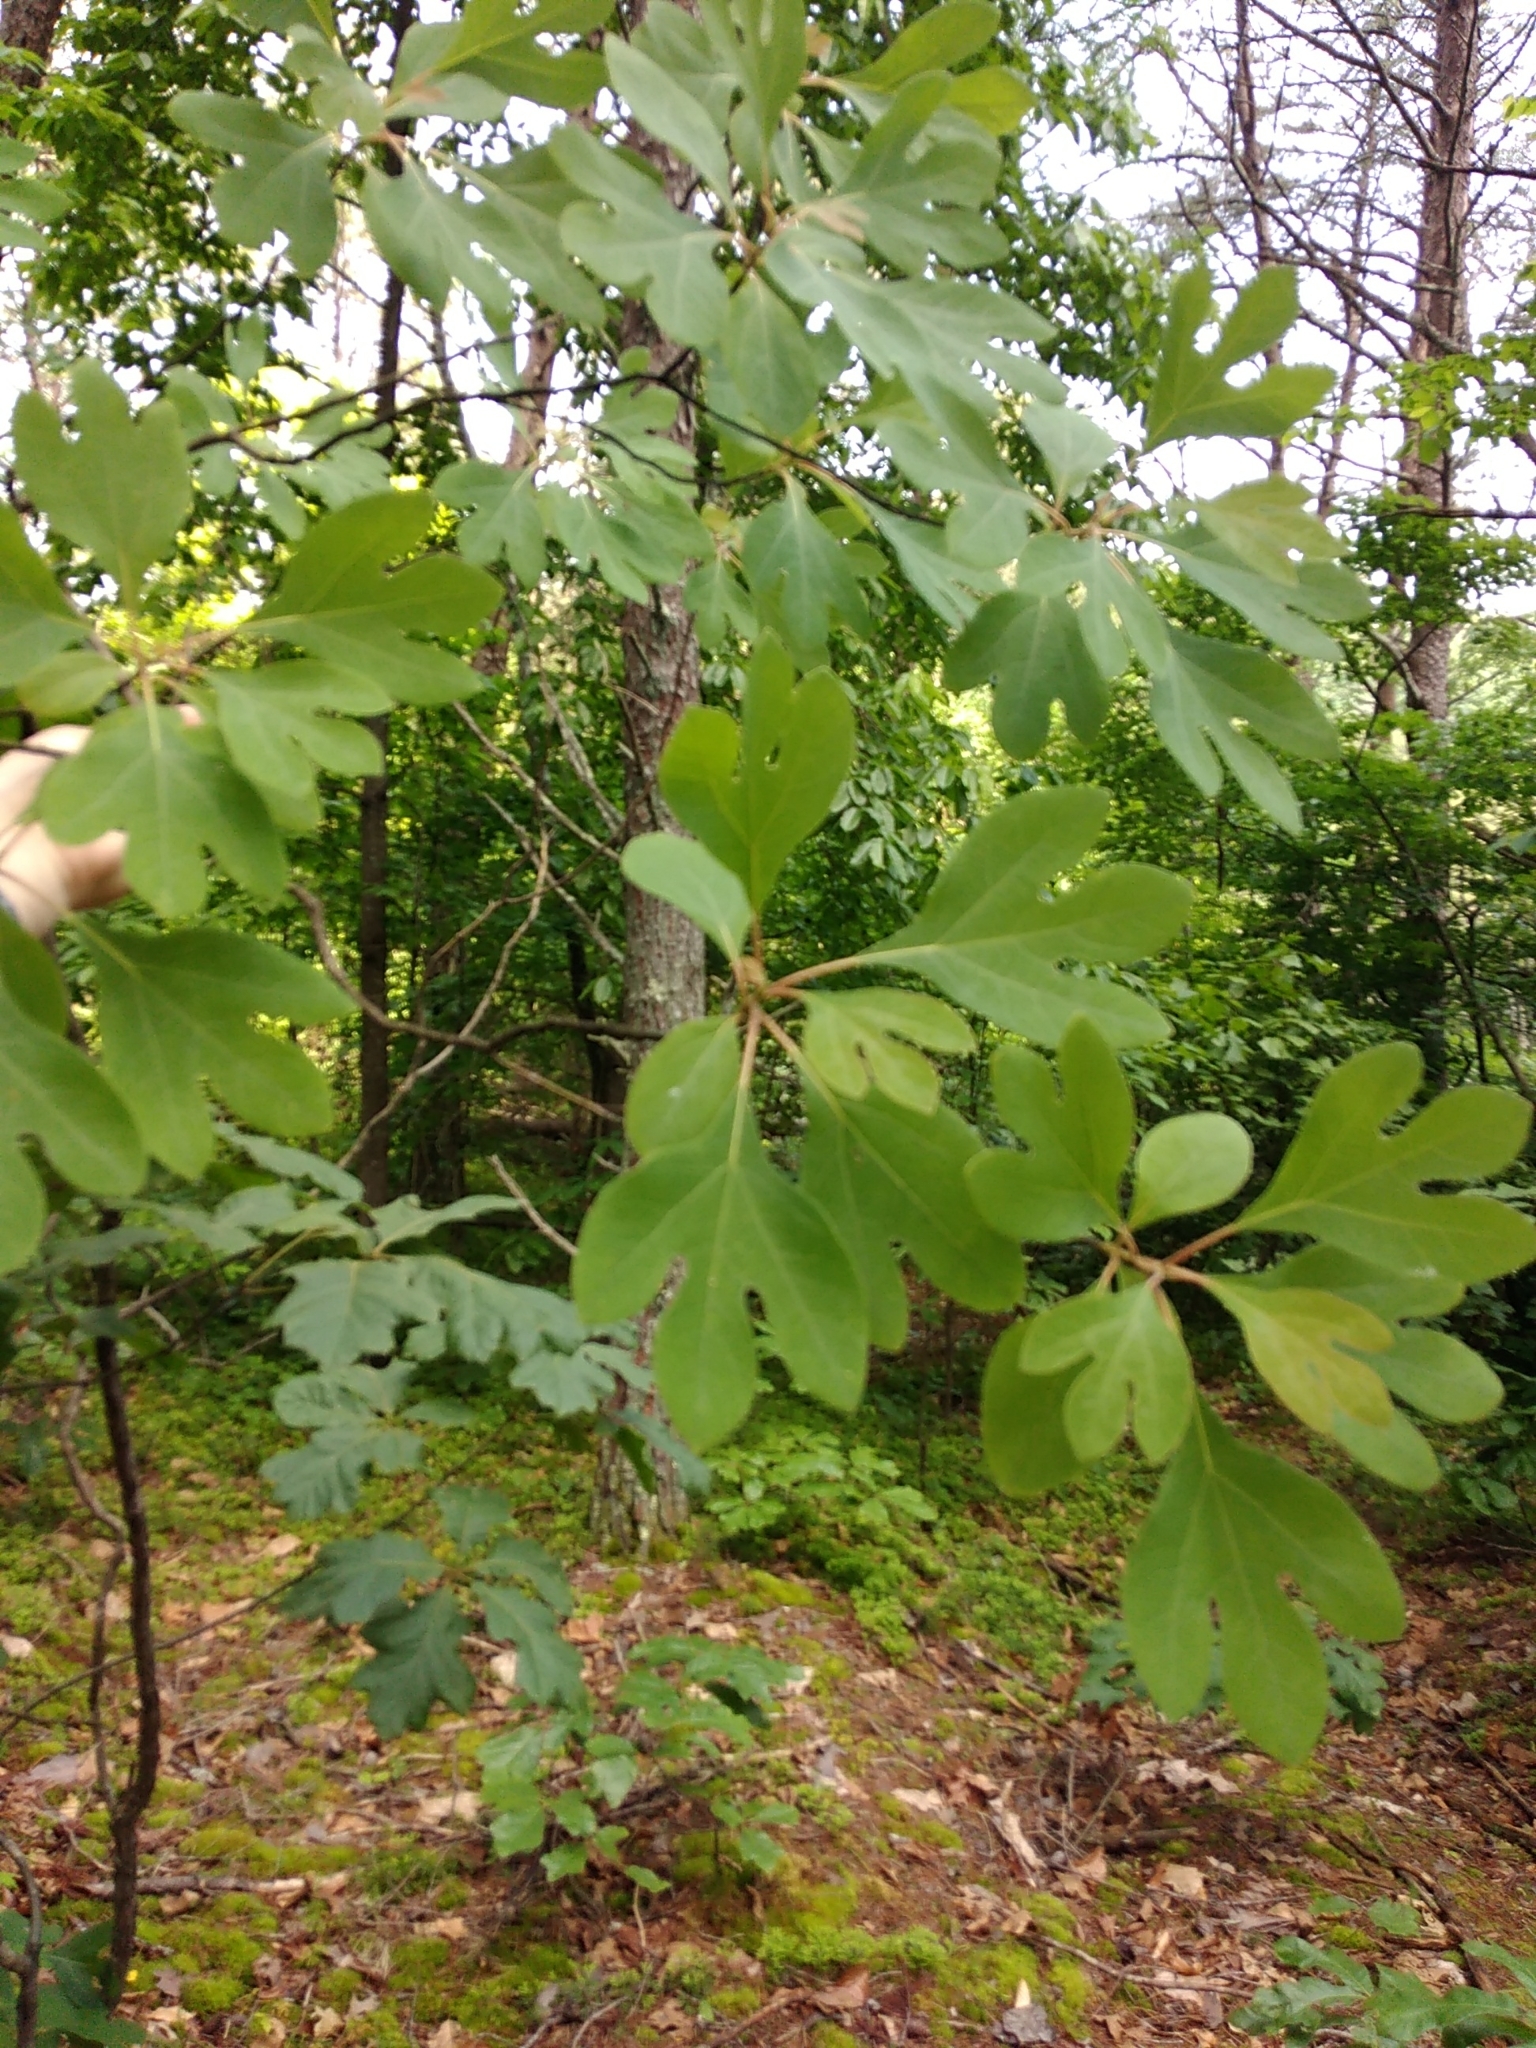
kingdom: Plantae
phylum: Tracheophyta
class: Magnoliopsida
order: Laurales
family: Lauraceae
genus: Sassafras
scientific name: Sassafras albidum
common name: Sassafras
